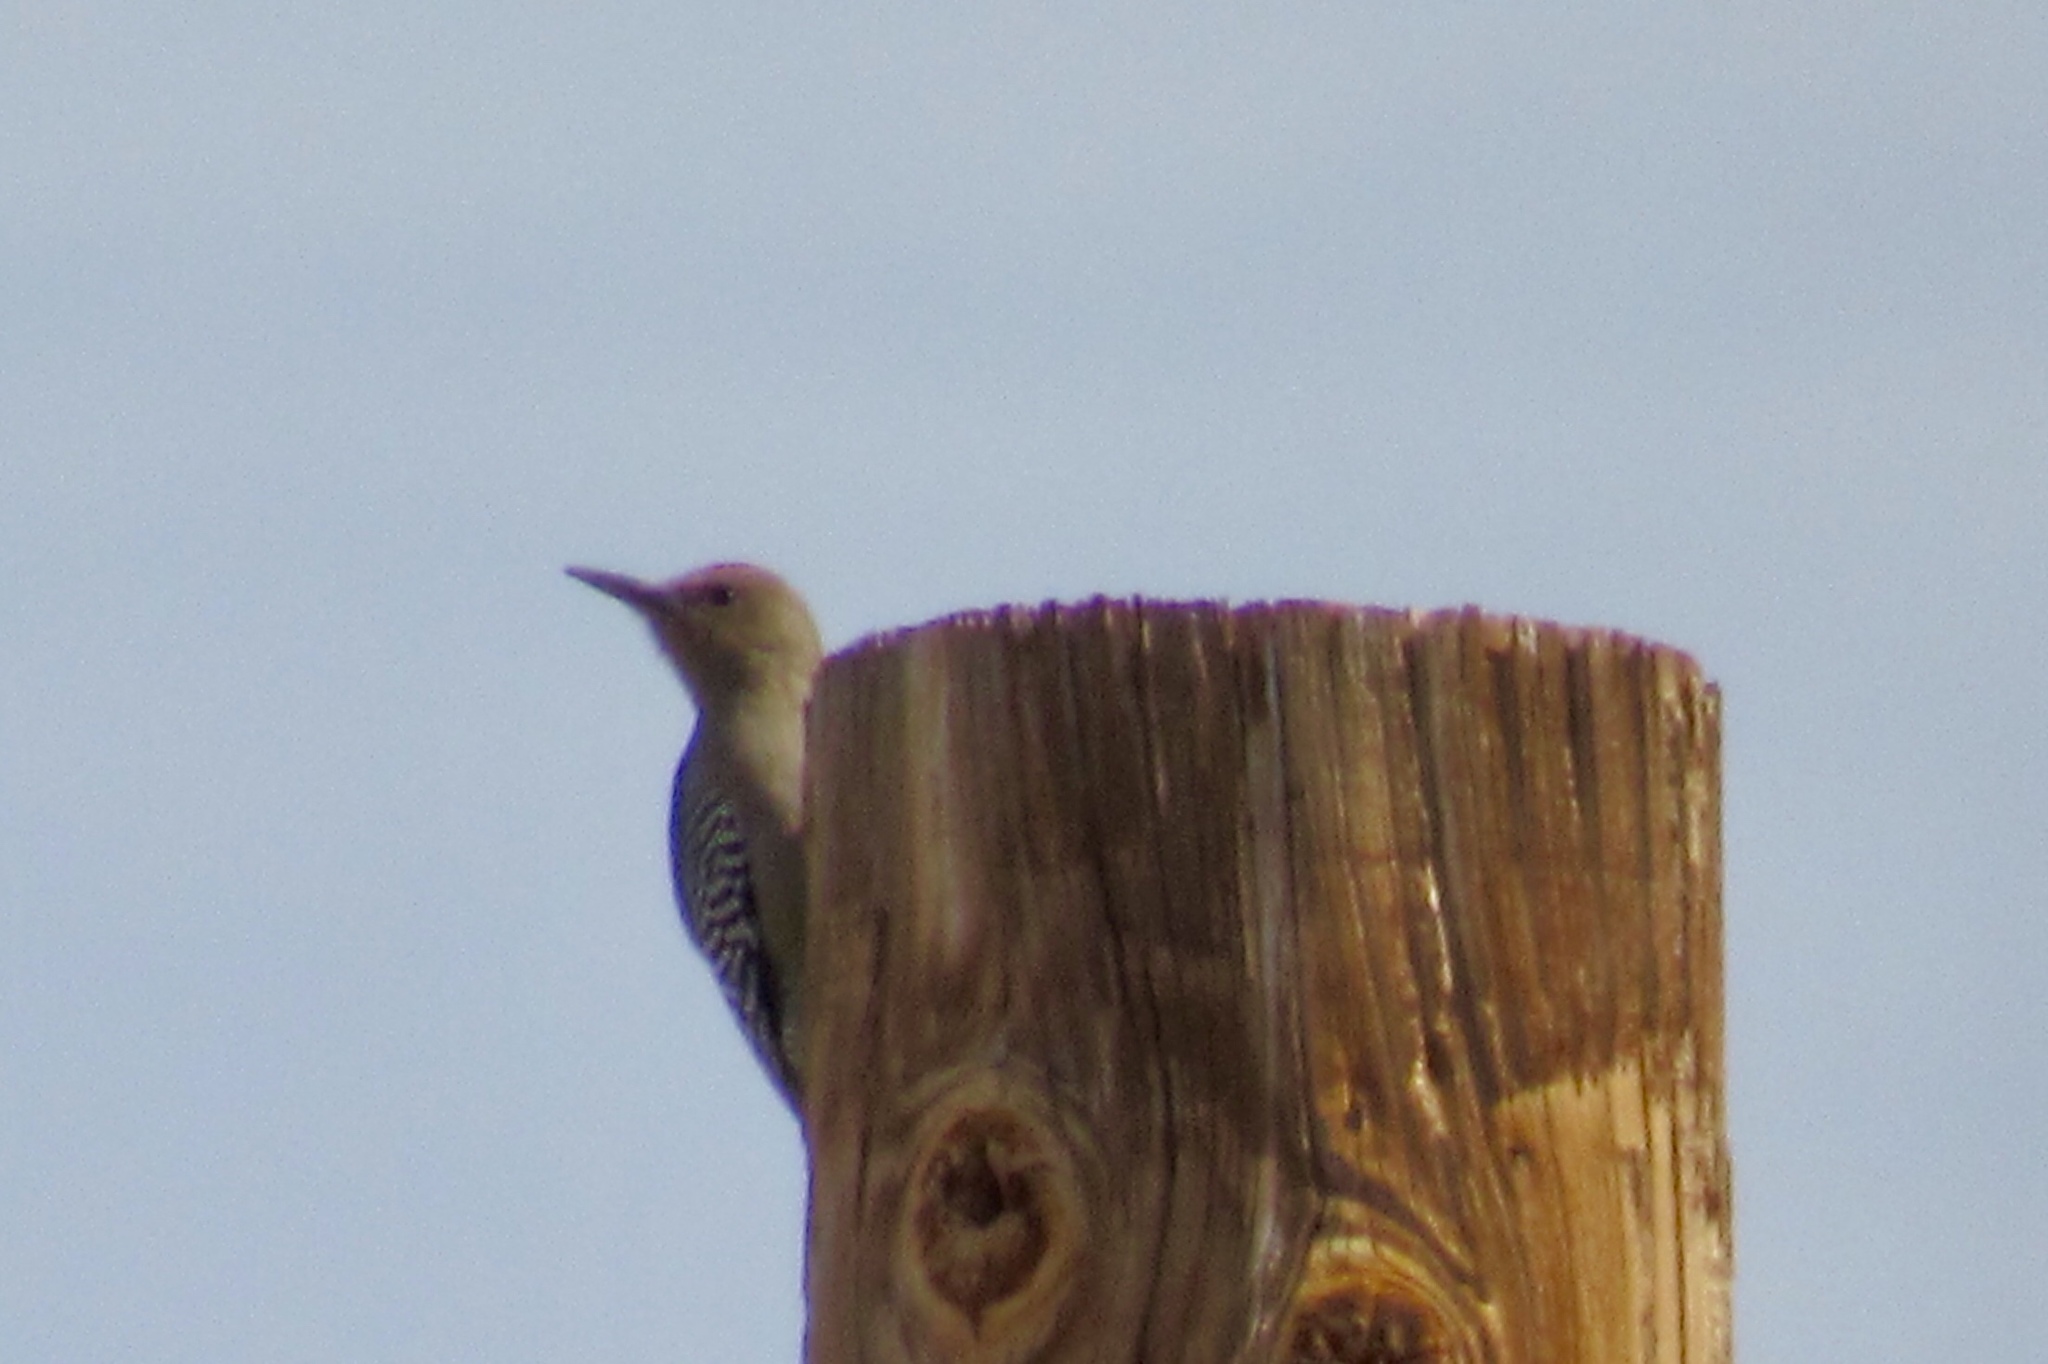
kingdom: Animalia
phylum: Chordata
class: Aves
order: Piciformes
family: Picidae
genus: Melanerpes
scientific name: Melanerpes uropygialis
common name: Gila woodpecker
